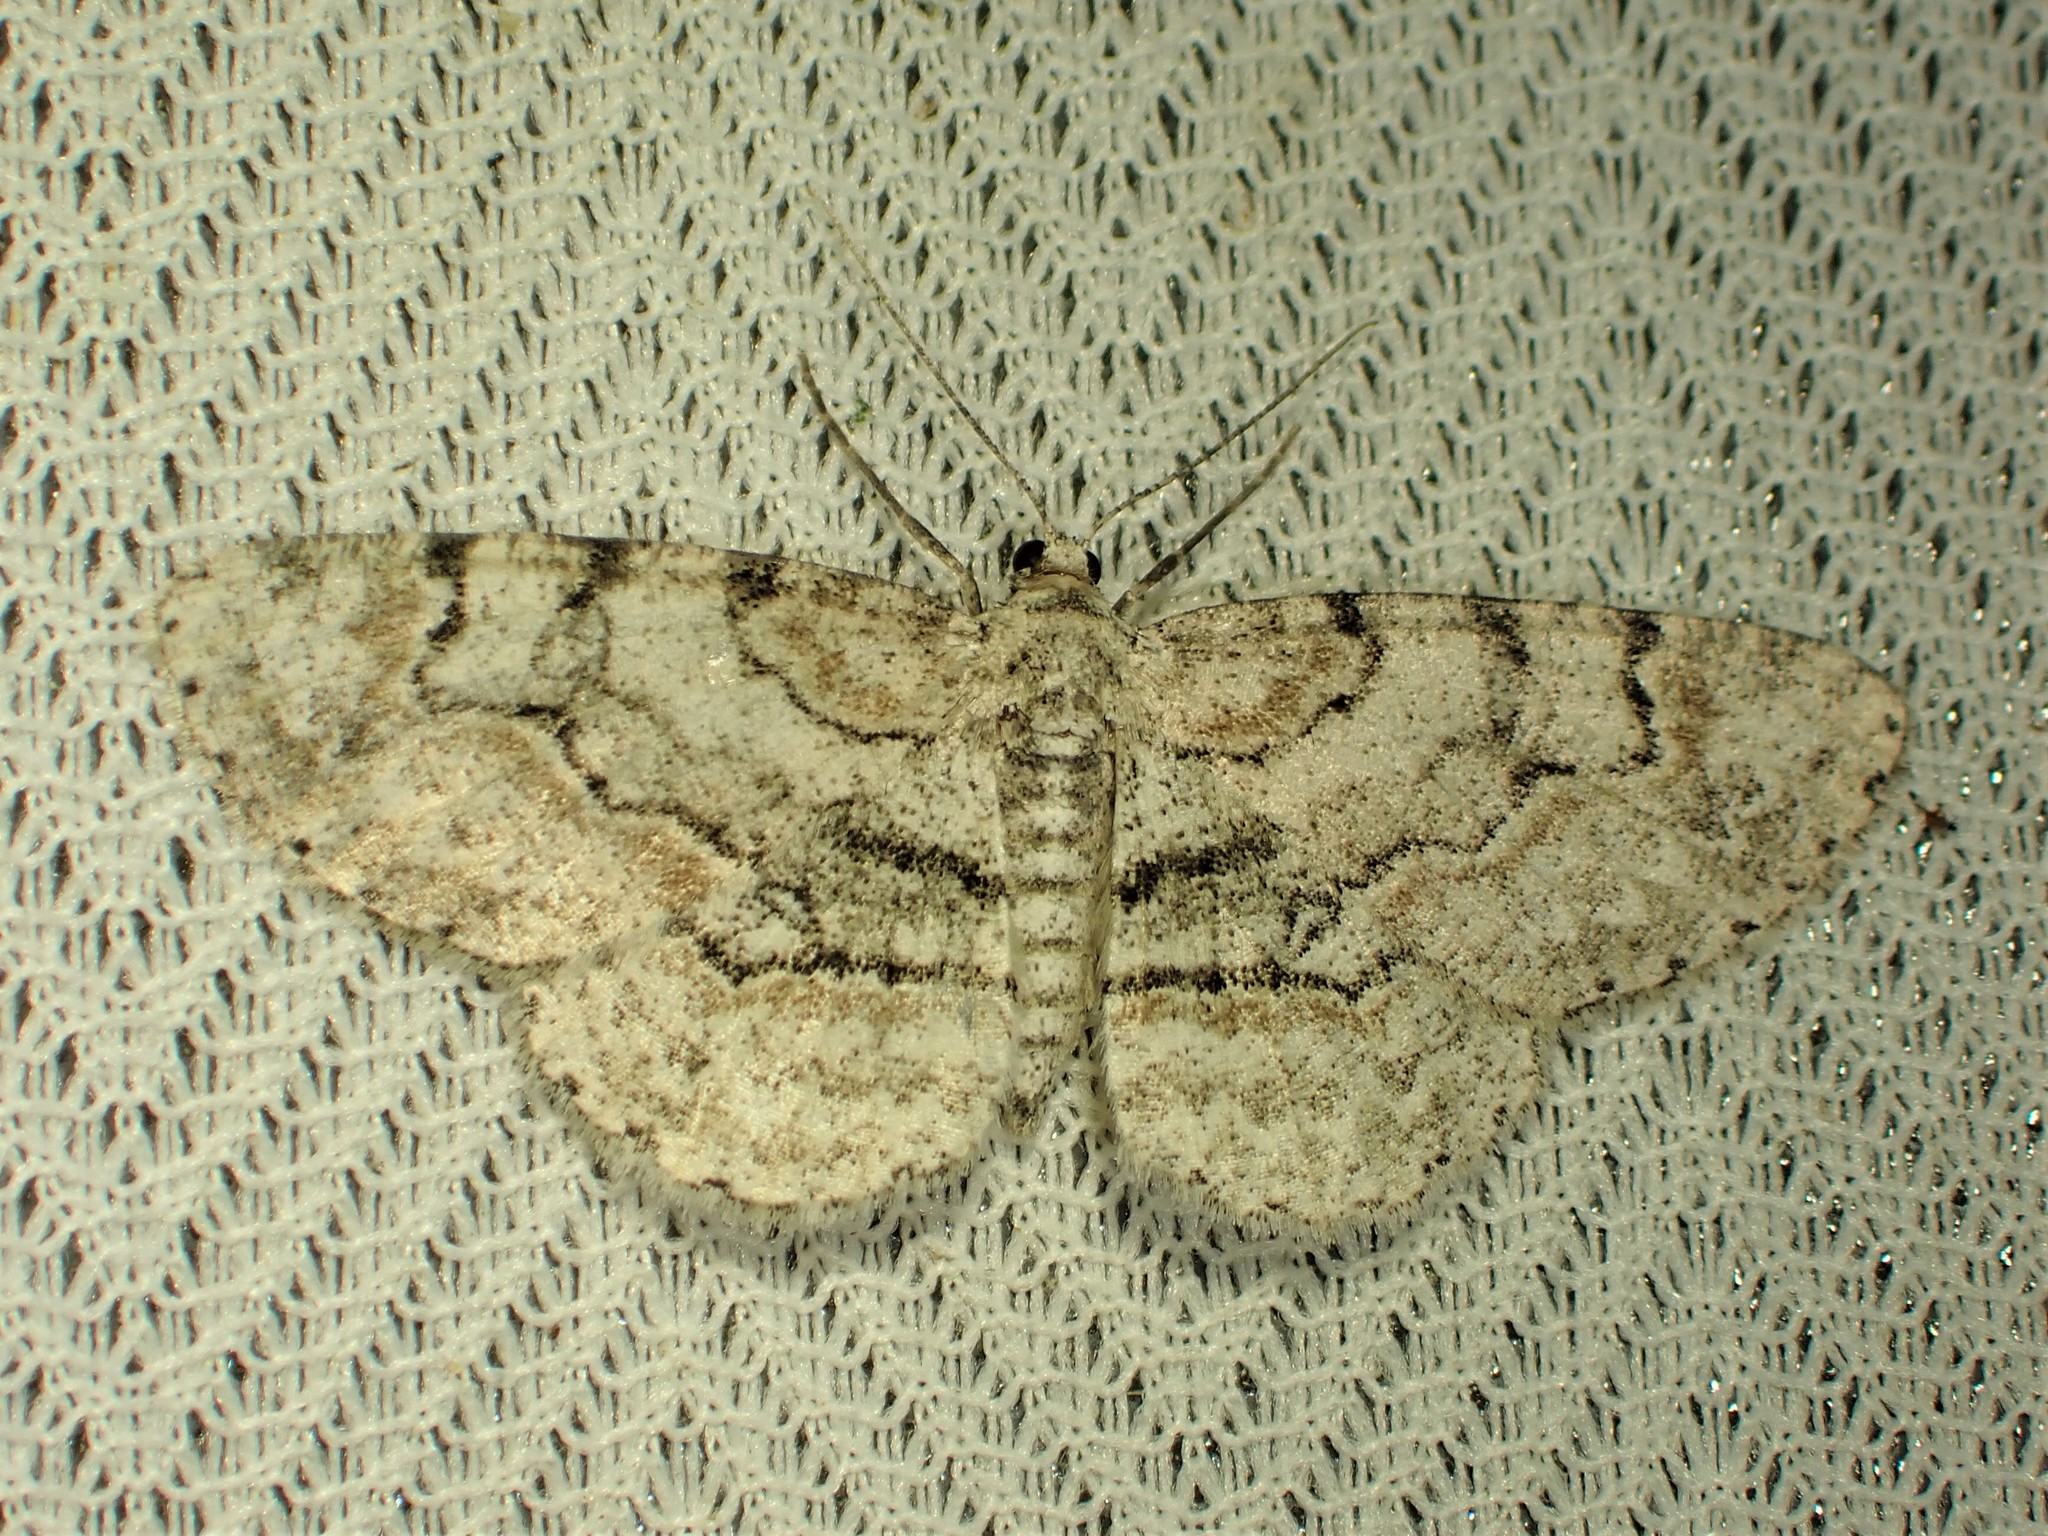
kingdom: Animalia
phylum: Arthropoda
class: Insecta
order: Lepidoptera
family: Geometridae
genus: Iridopsis
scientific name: Iridopsis ephyraria
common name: Pale-winged gray
